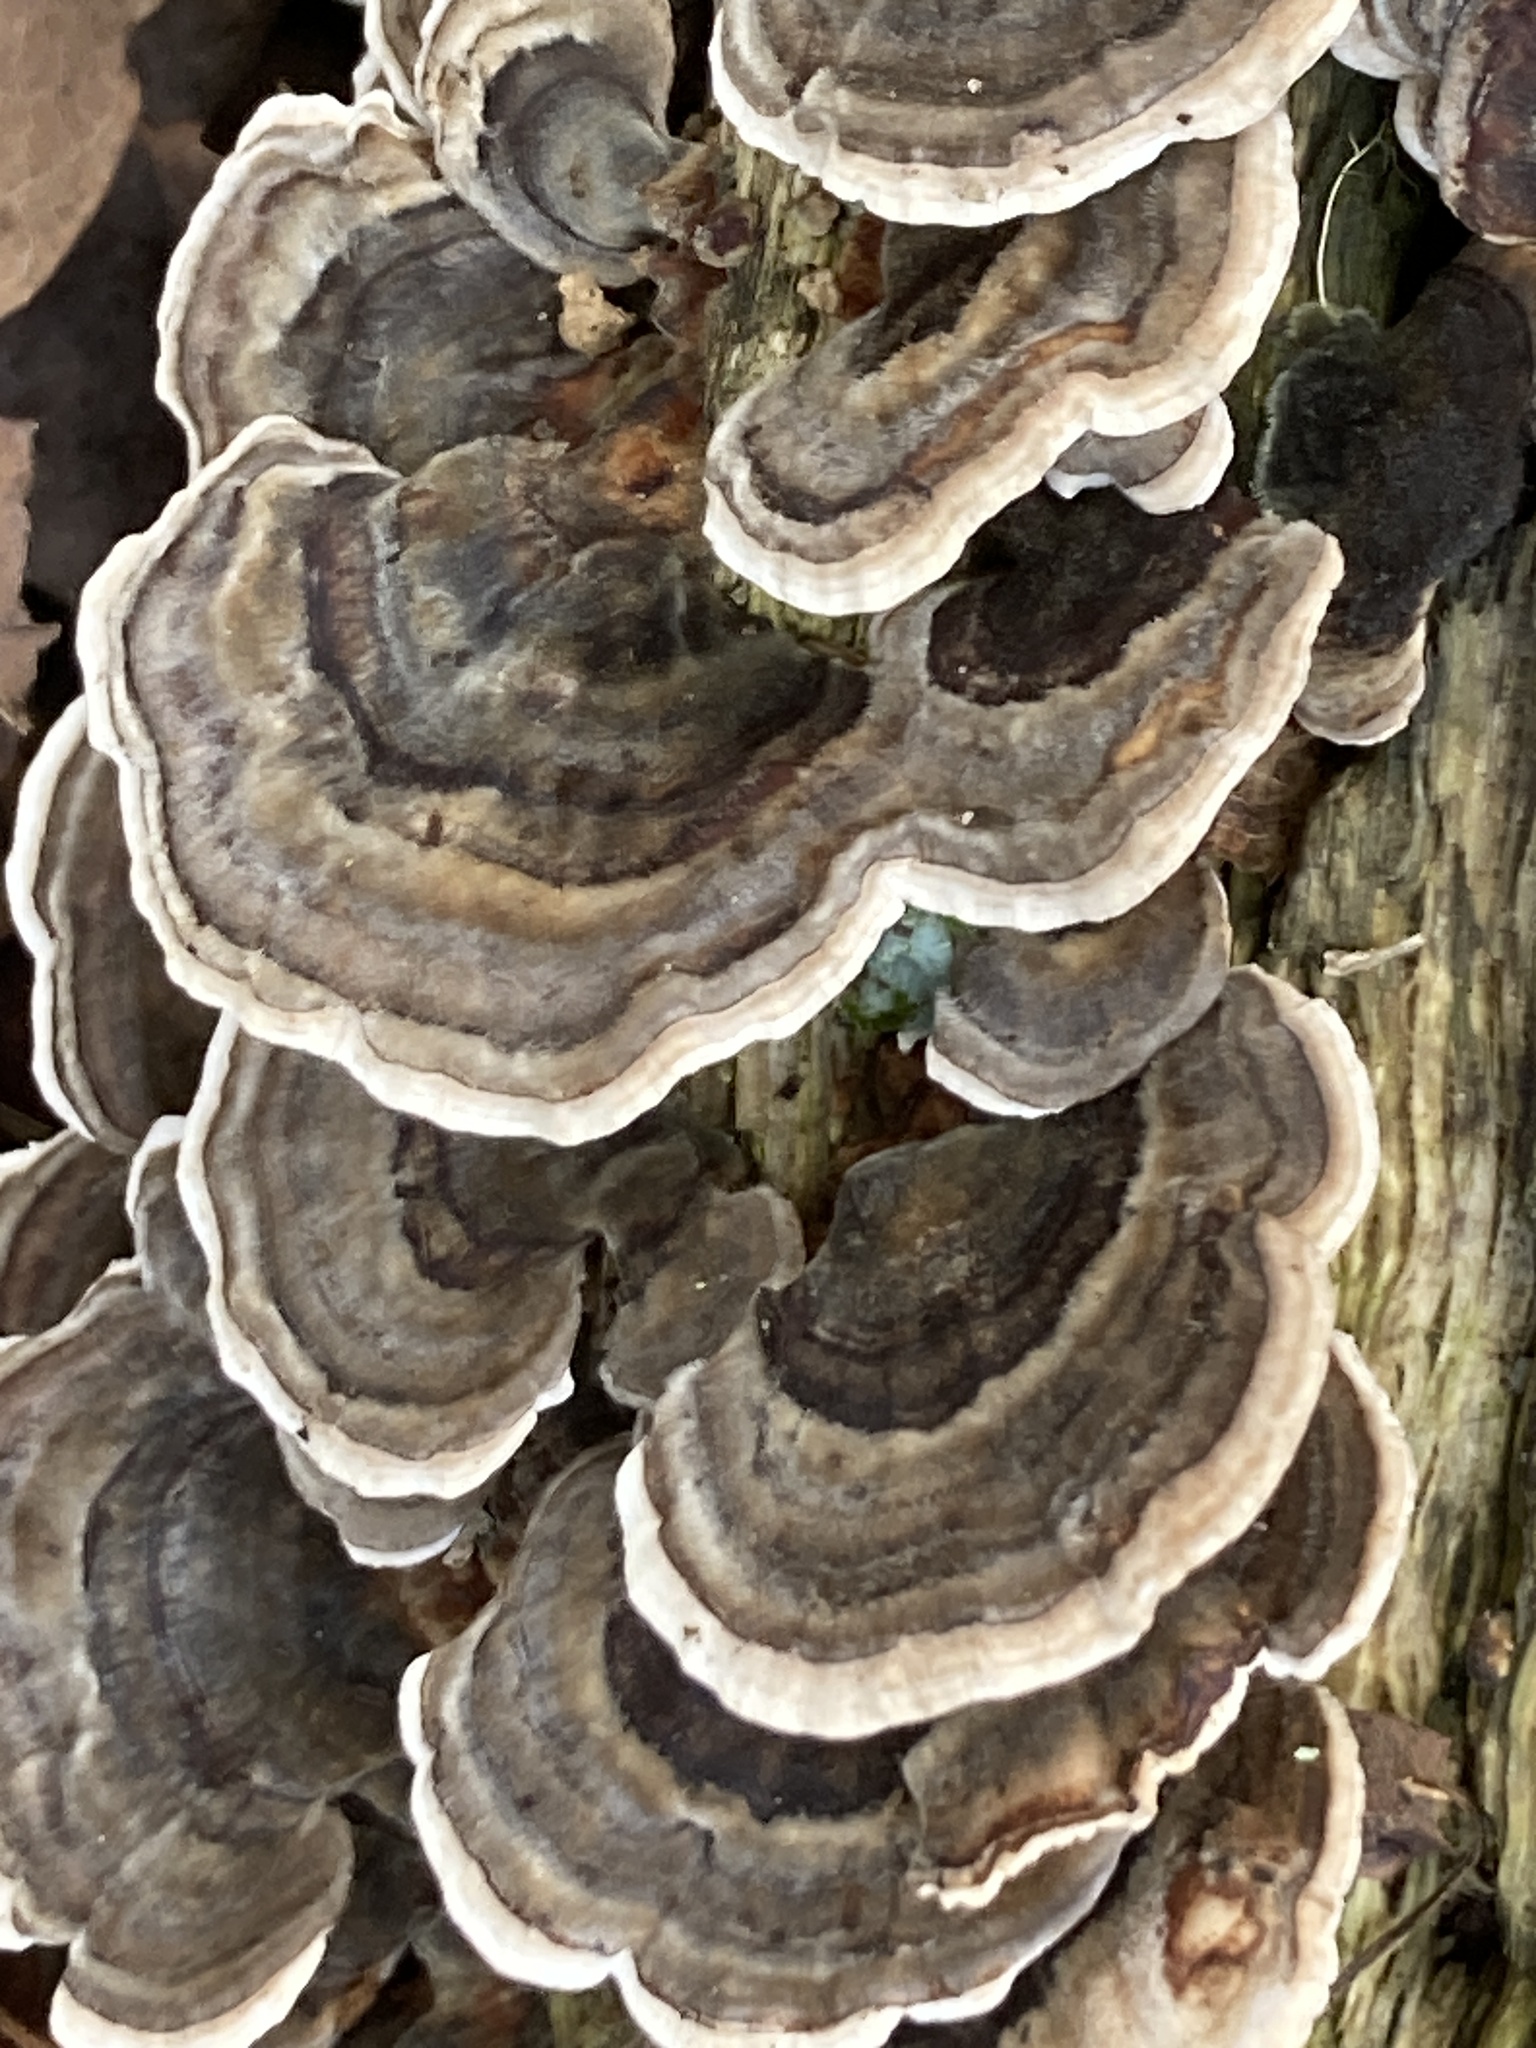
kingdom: Fungi
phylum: Basidiomycota
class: Agaricomycetes
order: Polyporales
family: Polyporaceae
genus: Trametes
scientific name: Trametes versicolor
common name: Turkeytail
